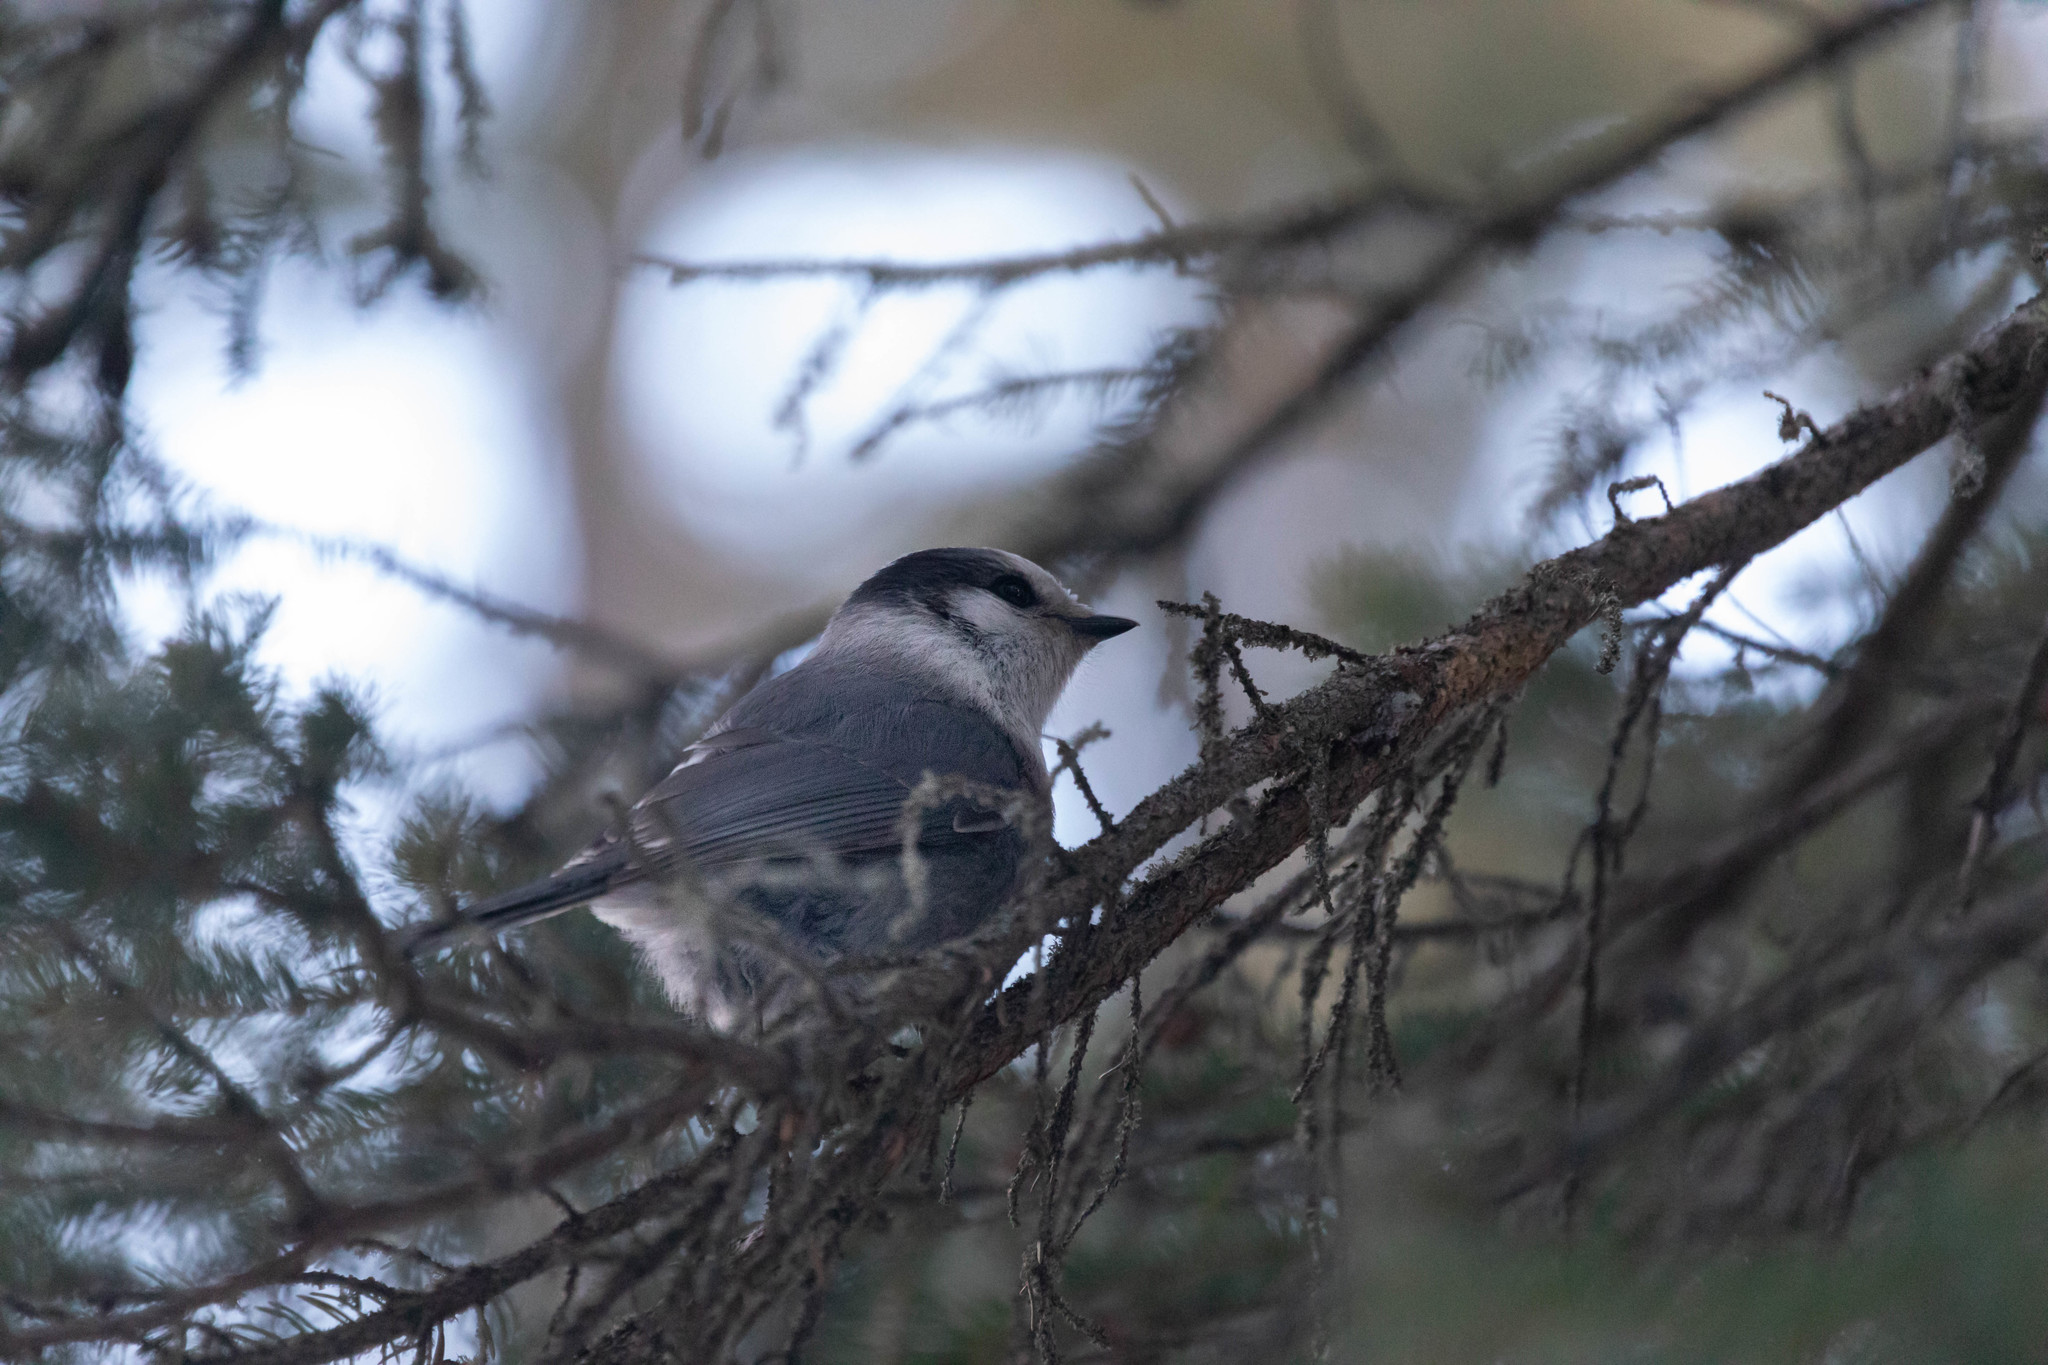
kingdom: Animalia
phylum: Chordata
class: Aves
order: Passeriformes
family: Corvidae
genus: Perisoreus
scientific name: Perisoreus canadensis
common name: Gray jay
